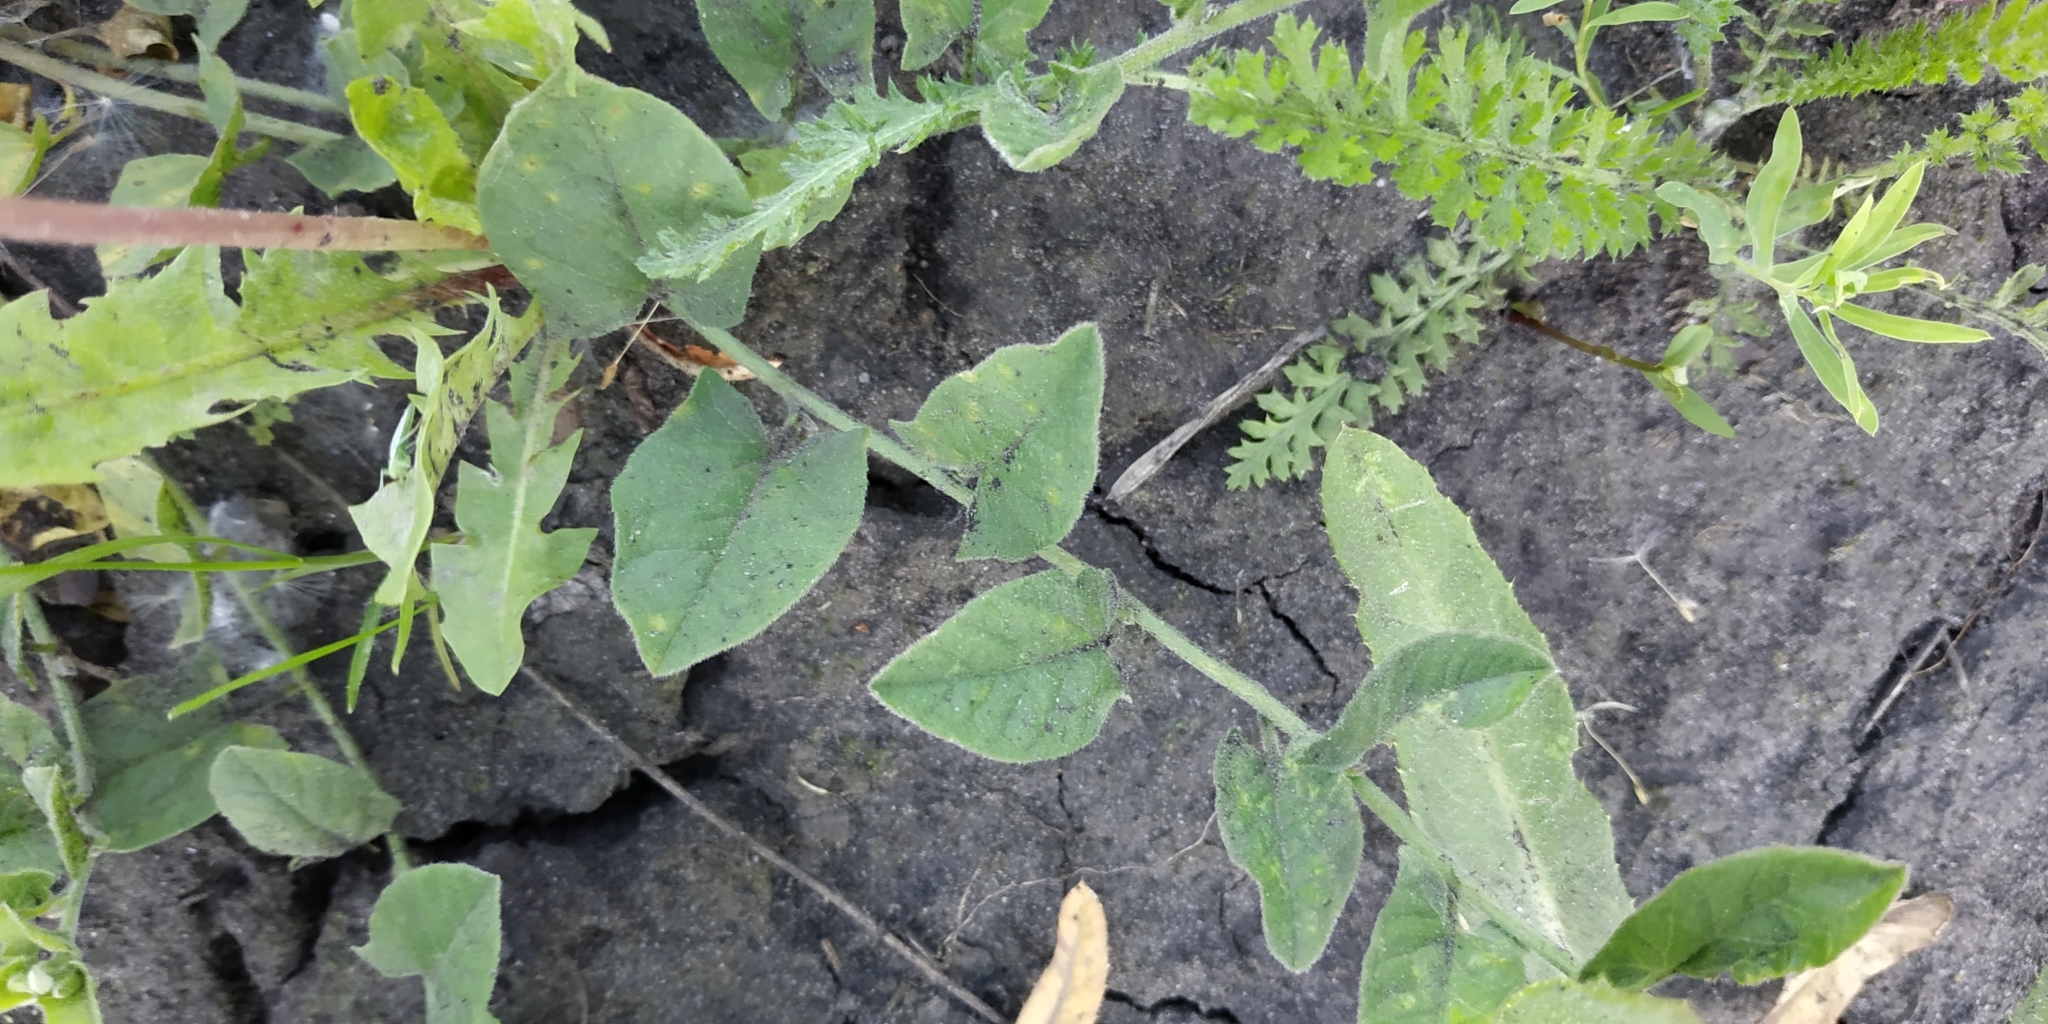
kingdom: Plantae
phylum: Tracheophyta
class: Magnoliopsida
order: Solanales
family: Convolvulaceae
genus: Convolvulus
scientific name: Convolvulus arvensis
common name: Field bindweed
